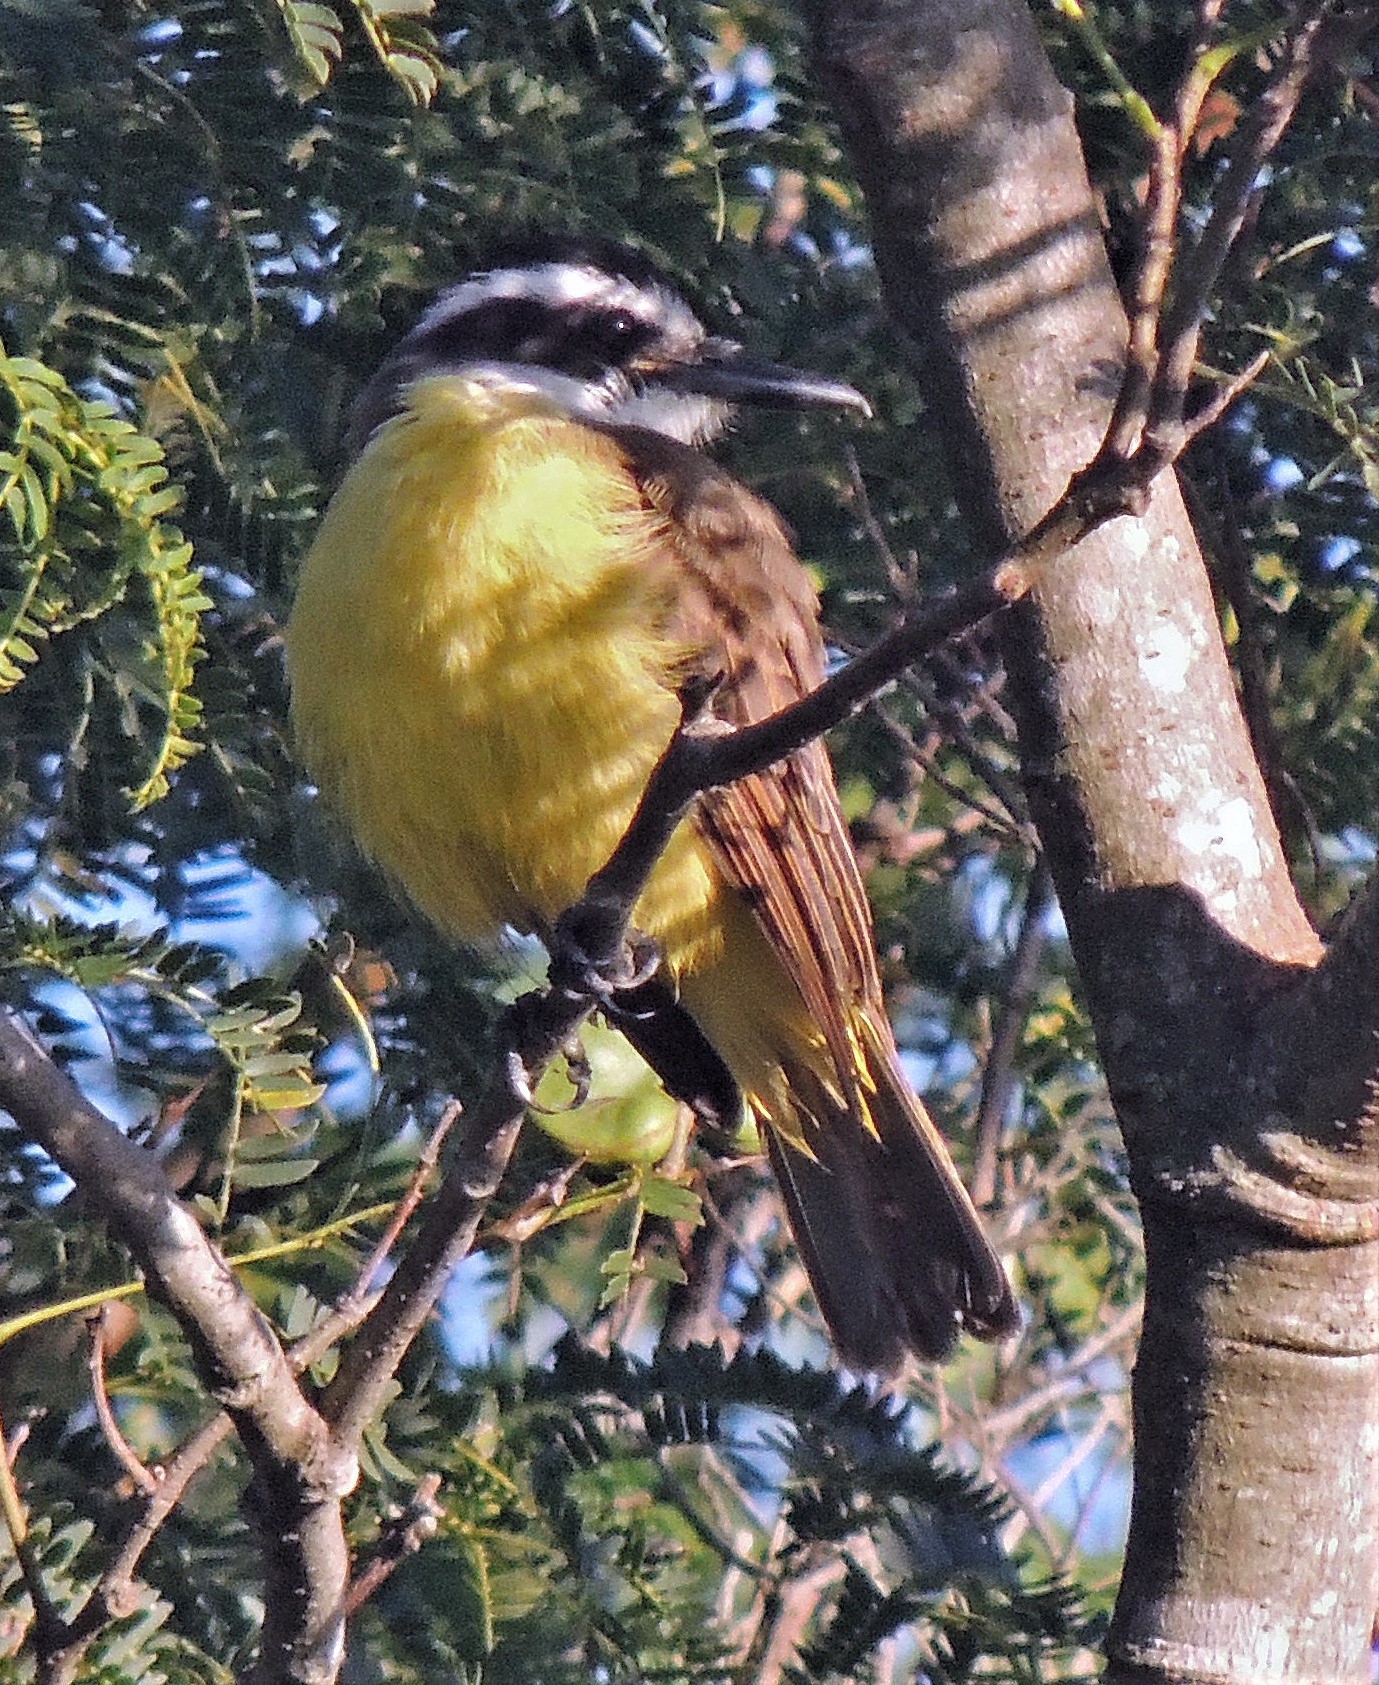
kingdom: Animalia
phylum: Chordata
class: Aves
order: Passeriformes
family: Tyrannidae
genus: Pitangus
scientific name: Pitangus sulphuratus
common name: Great kiskadee
